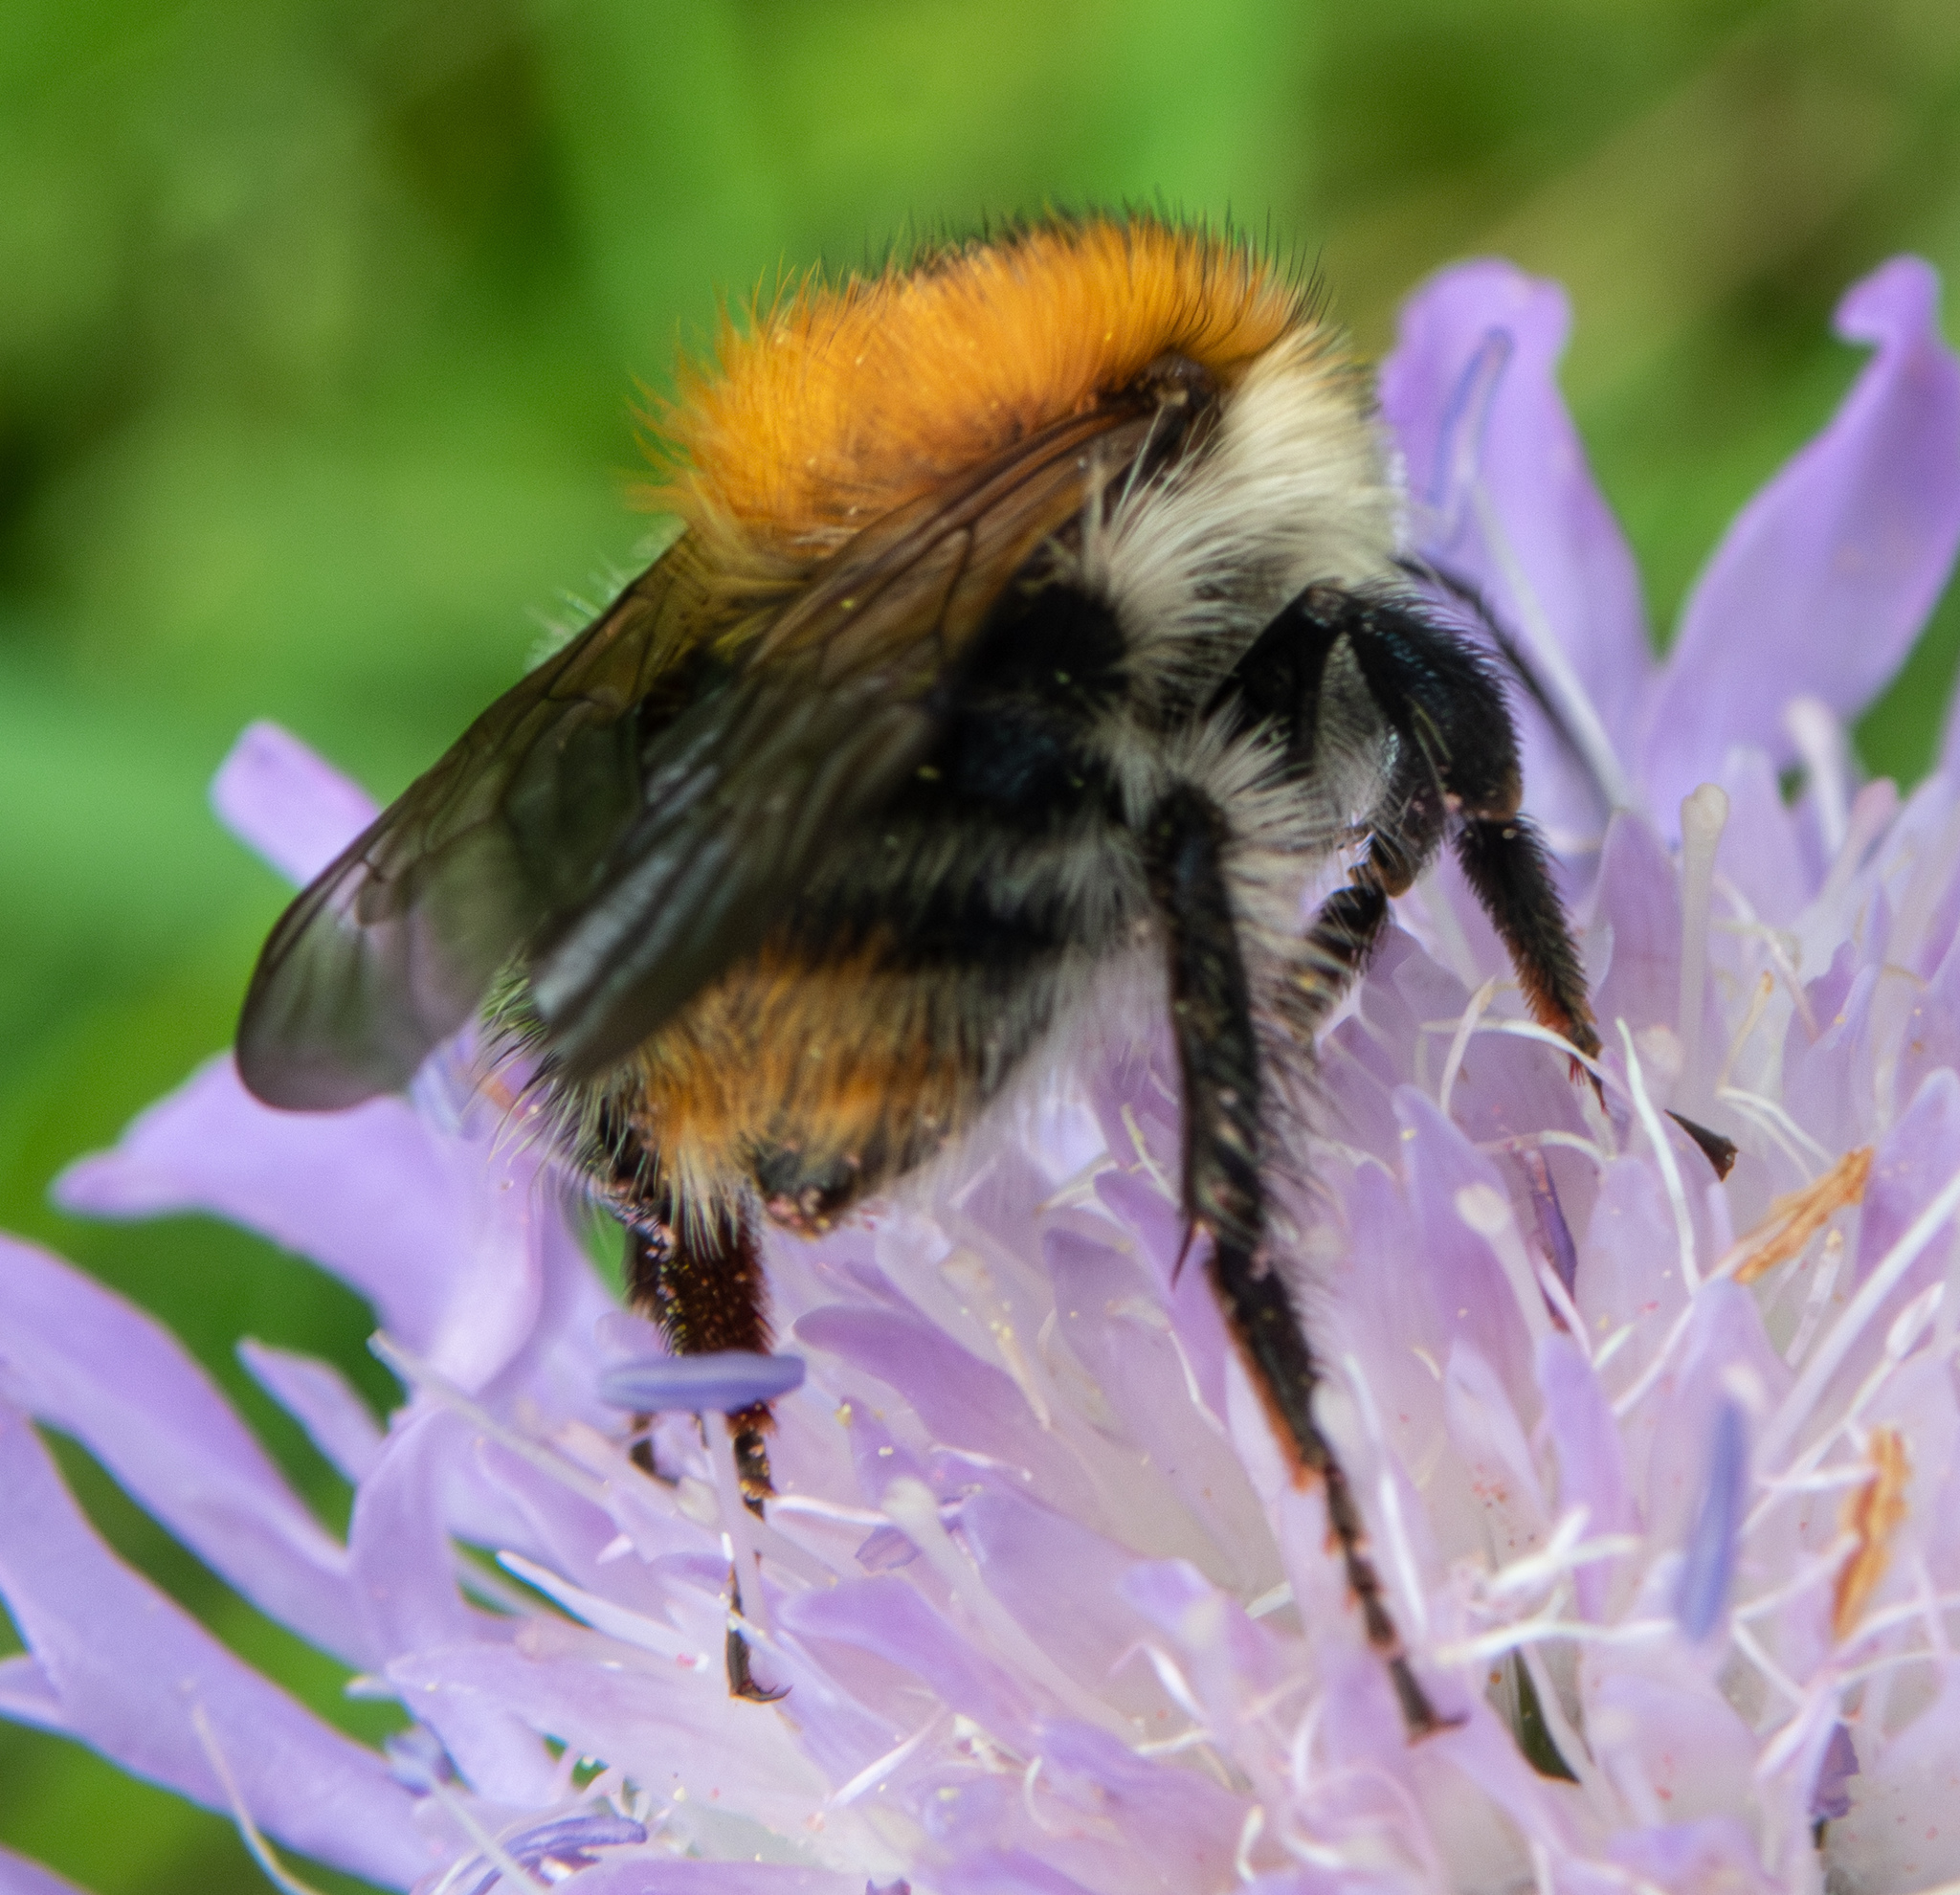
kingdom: Animalia
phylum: Arthropoda
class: Insecta
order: Hymenoptera
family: Apidae
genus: Bombus
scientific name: Bombus pascuorum
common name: Common carder bee
